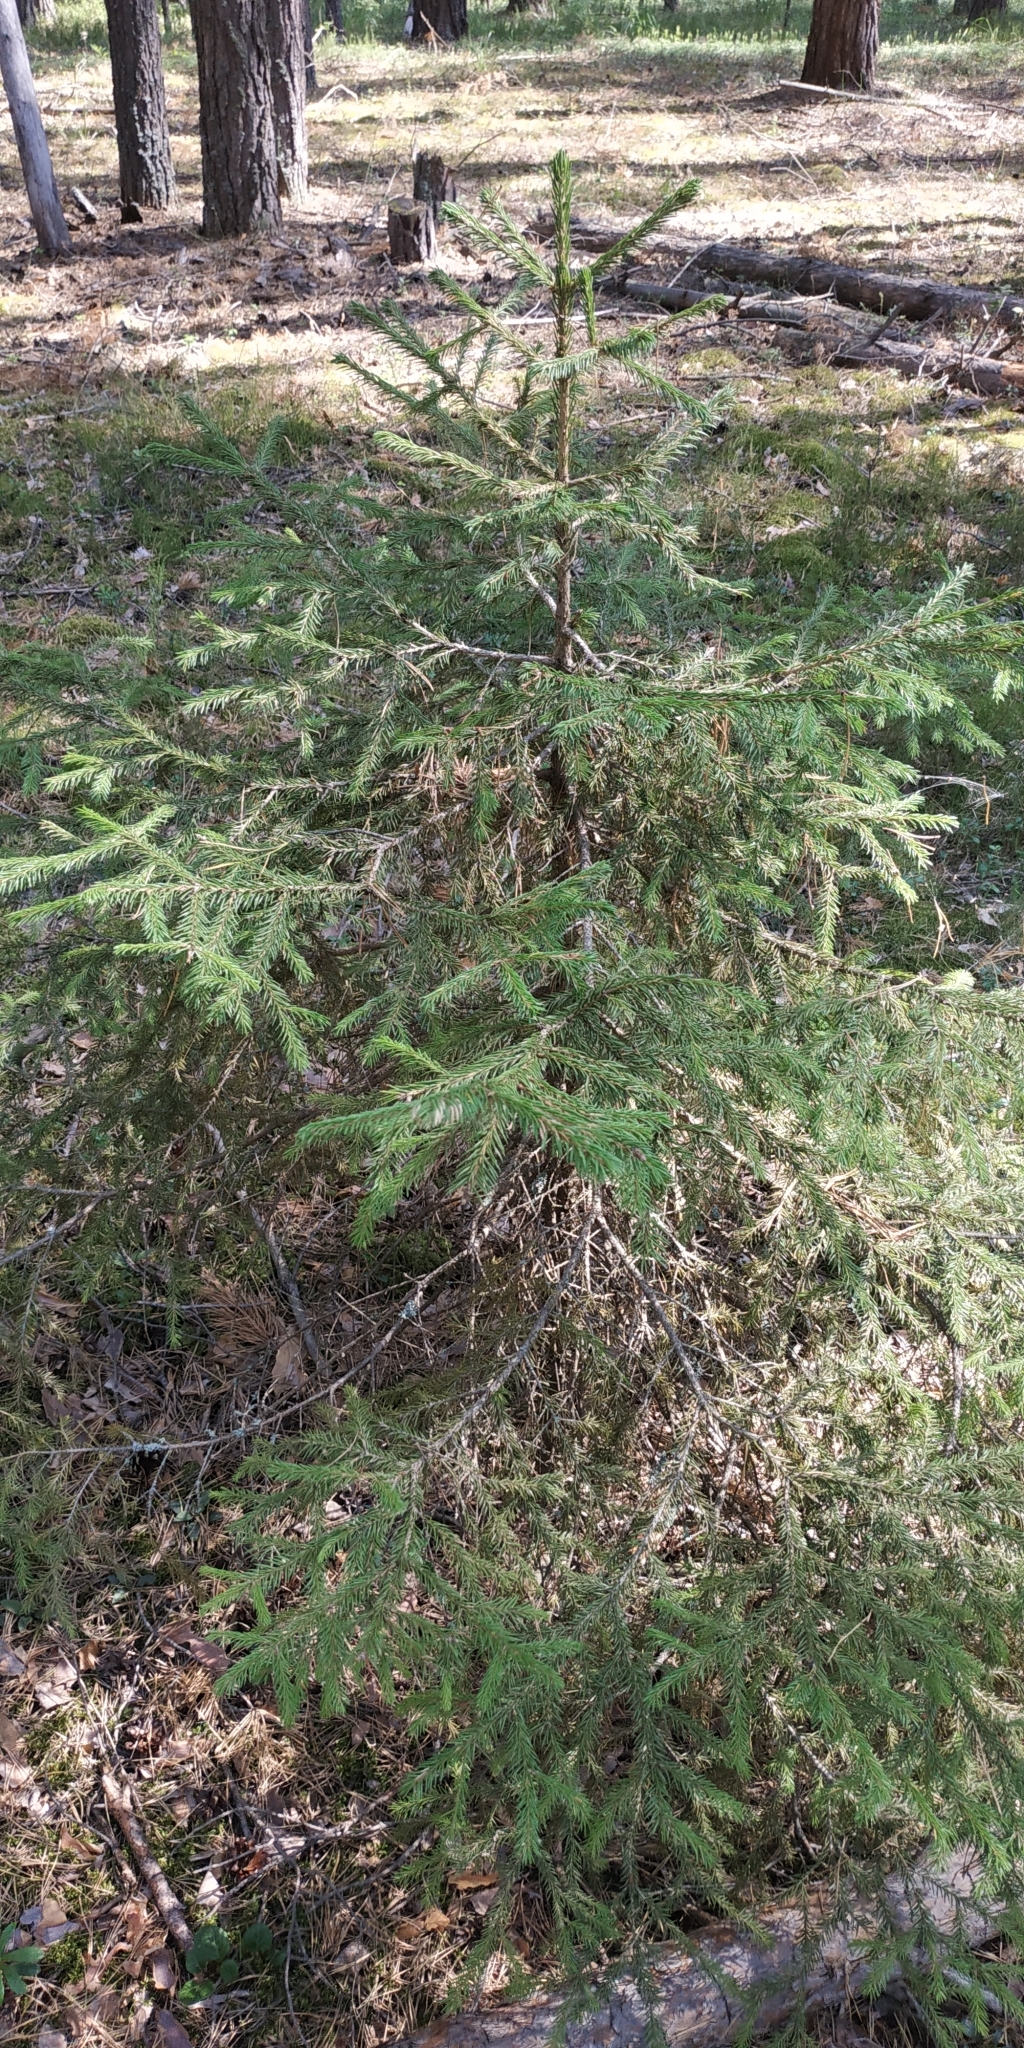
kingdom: Plantae
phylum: Tracheophyta
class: Pinopsida
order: Pinales
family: Pinaceae
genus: Picea
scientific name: Picea obovata
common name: Siberian spruce
